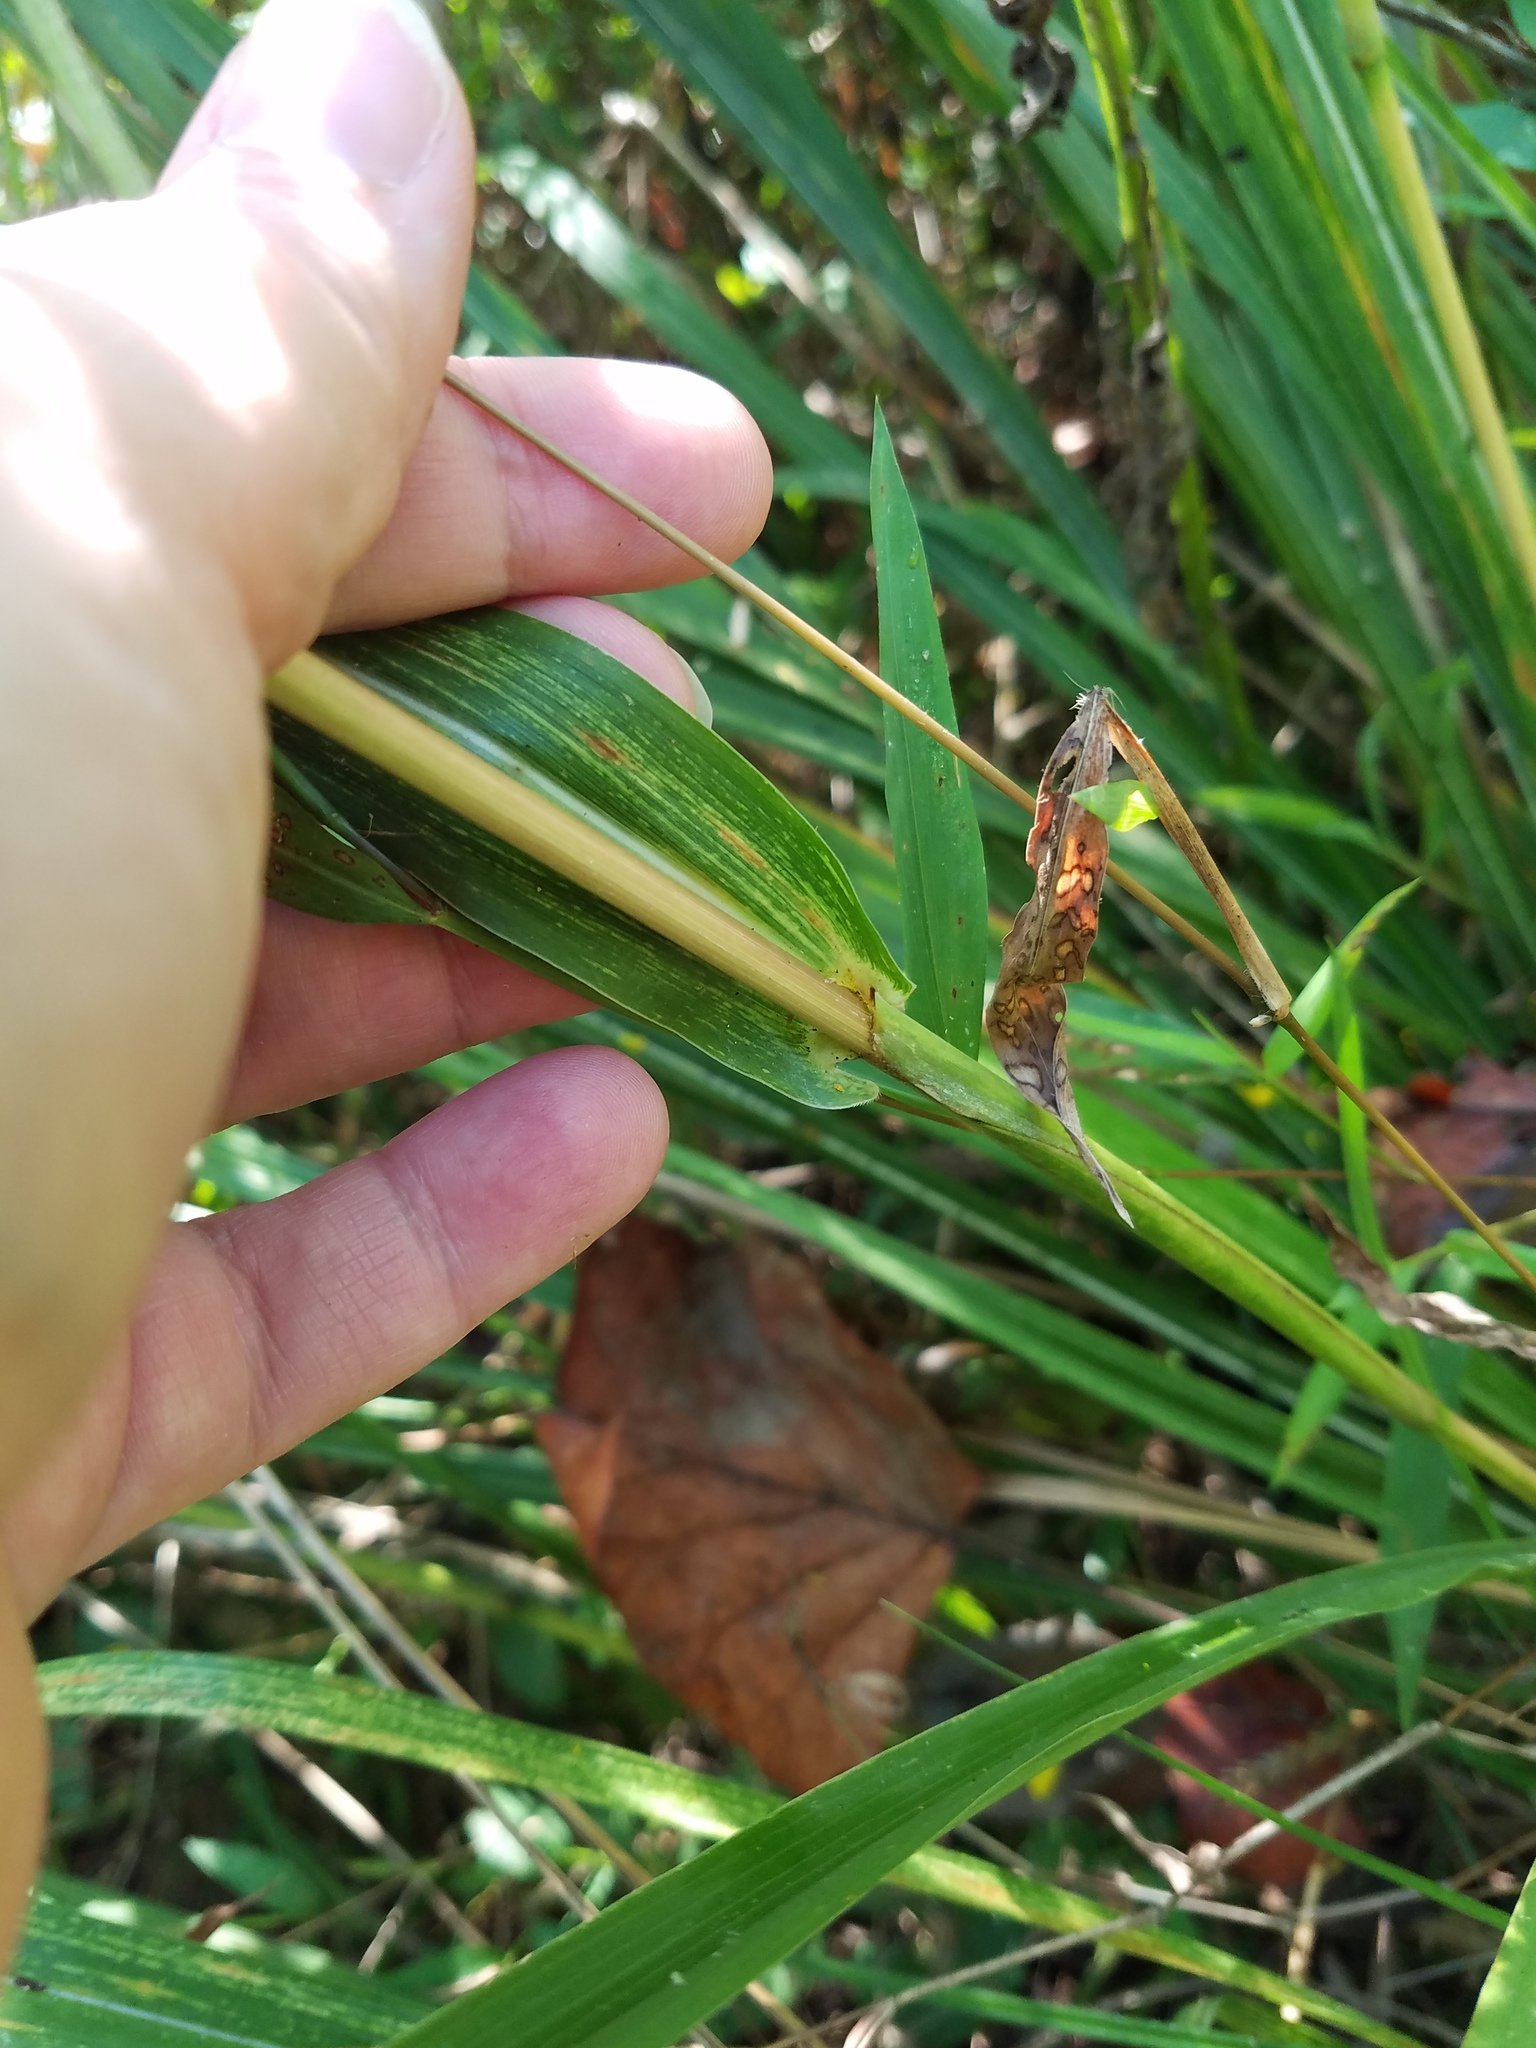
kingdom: Plantae
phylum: Tracheophyta
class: Liliopsida
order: Poales
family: Poaceae
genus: Tripsacum
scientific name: Tripsacum dactyloides
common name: Buffalo-grass
